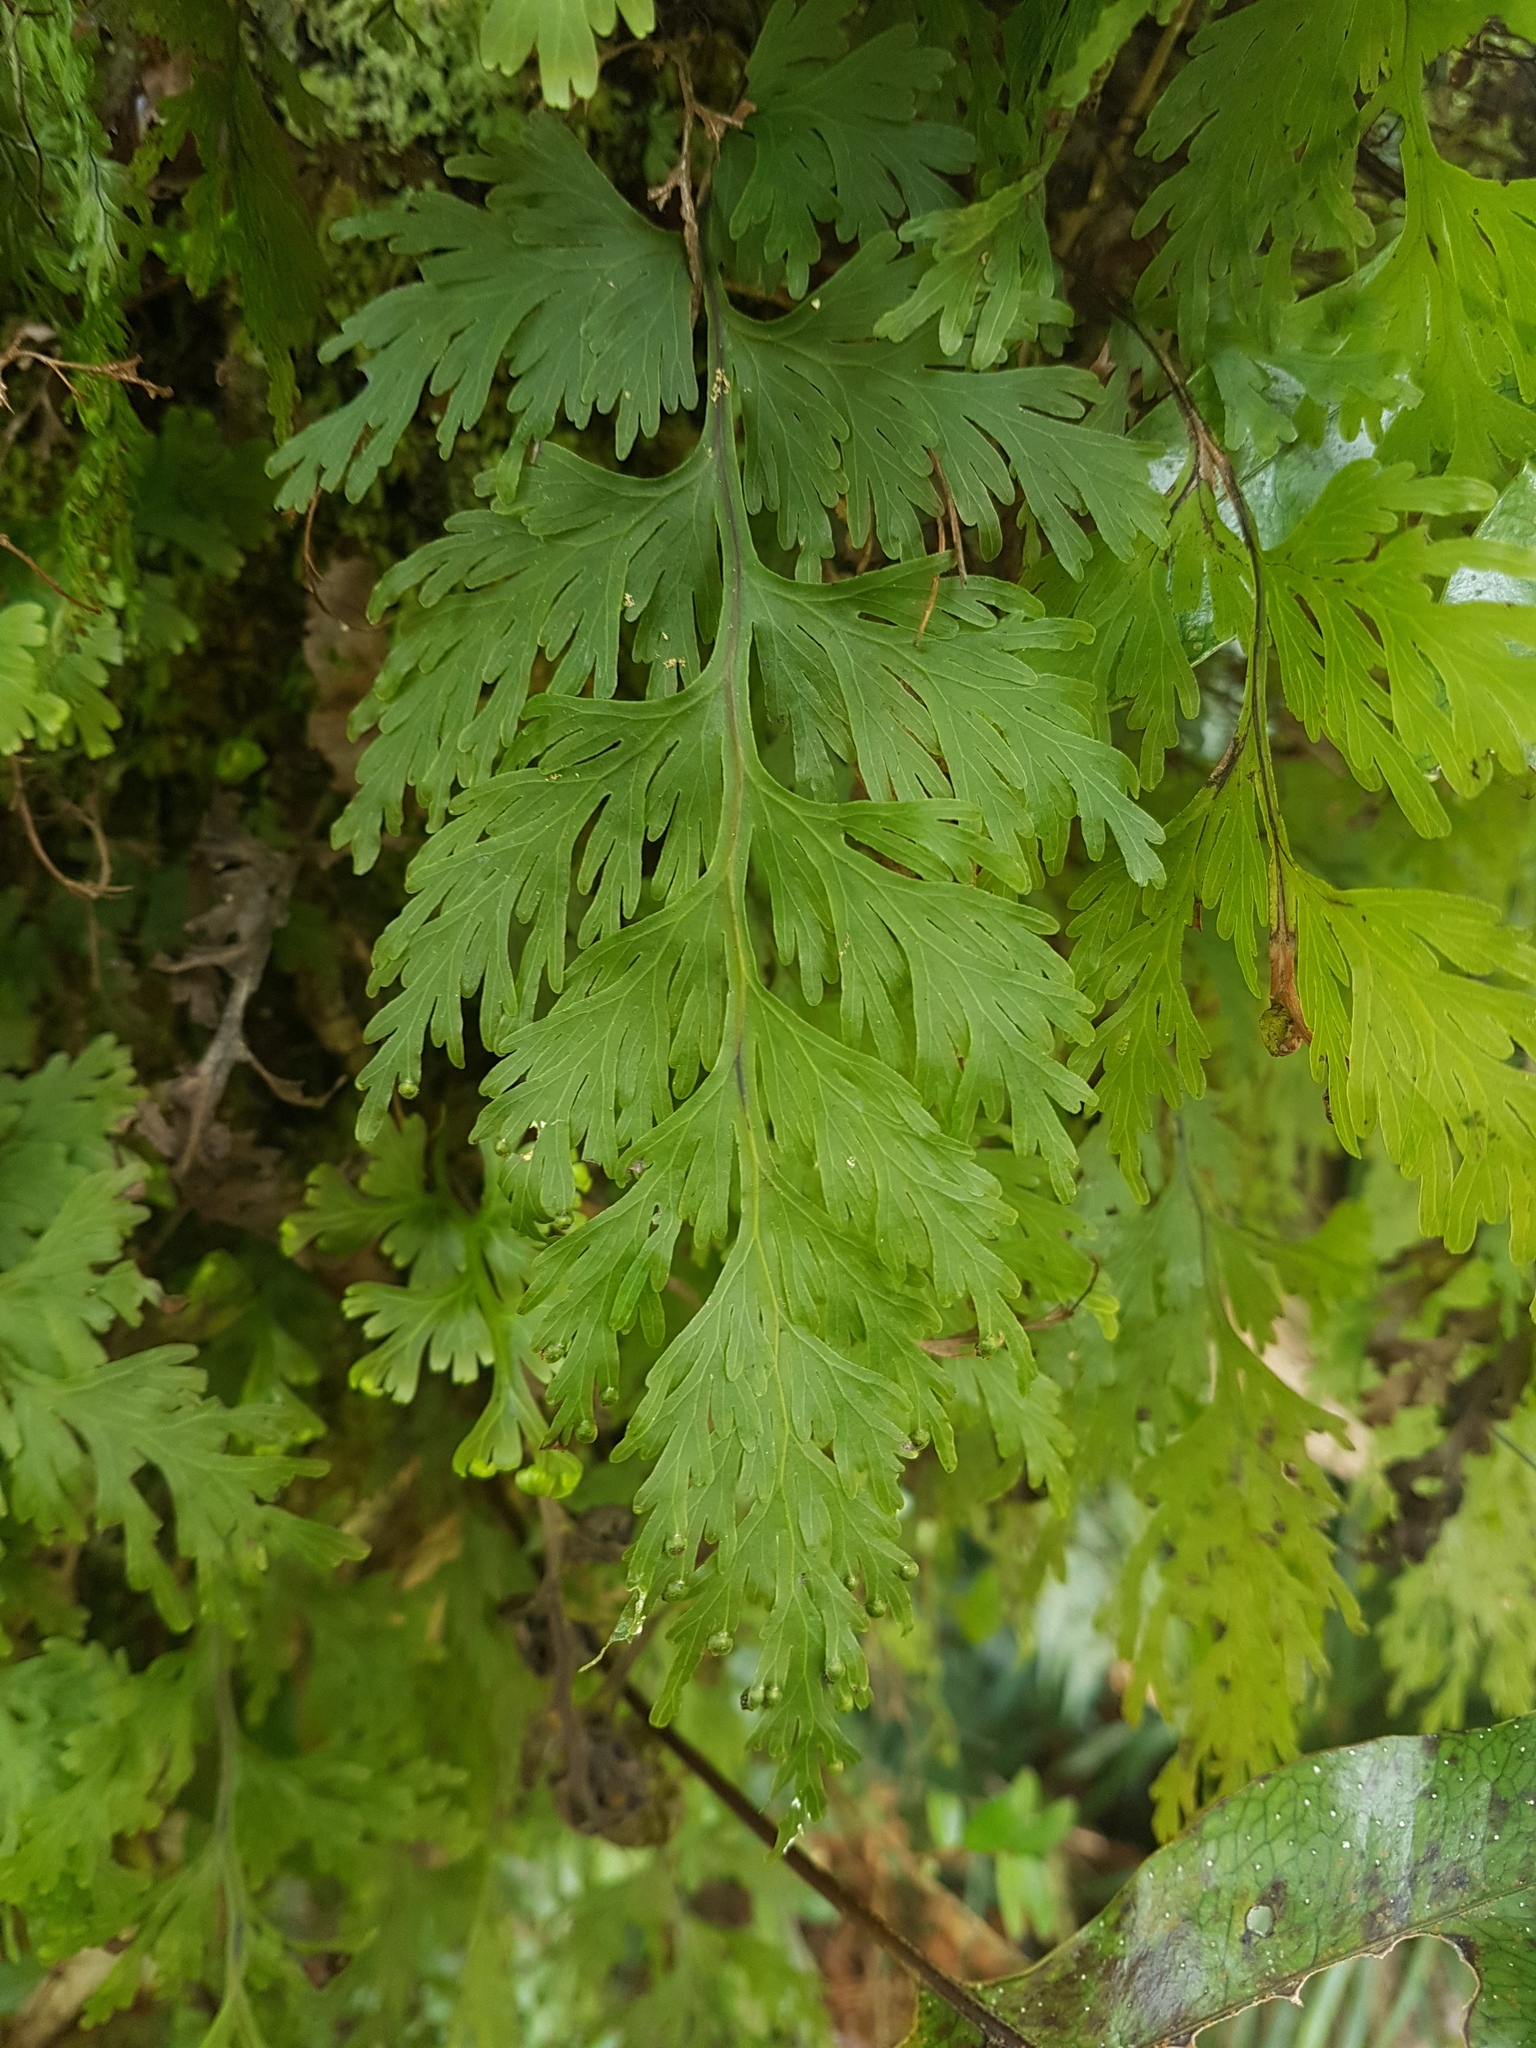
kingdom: Plantae
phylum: Tracheophyta
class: Polypodiopsida
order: Hymenophyllales
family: Hymenophyllaceae
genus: Hymenophyllum
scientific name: Hymenophyllum dilatatum
